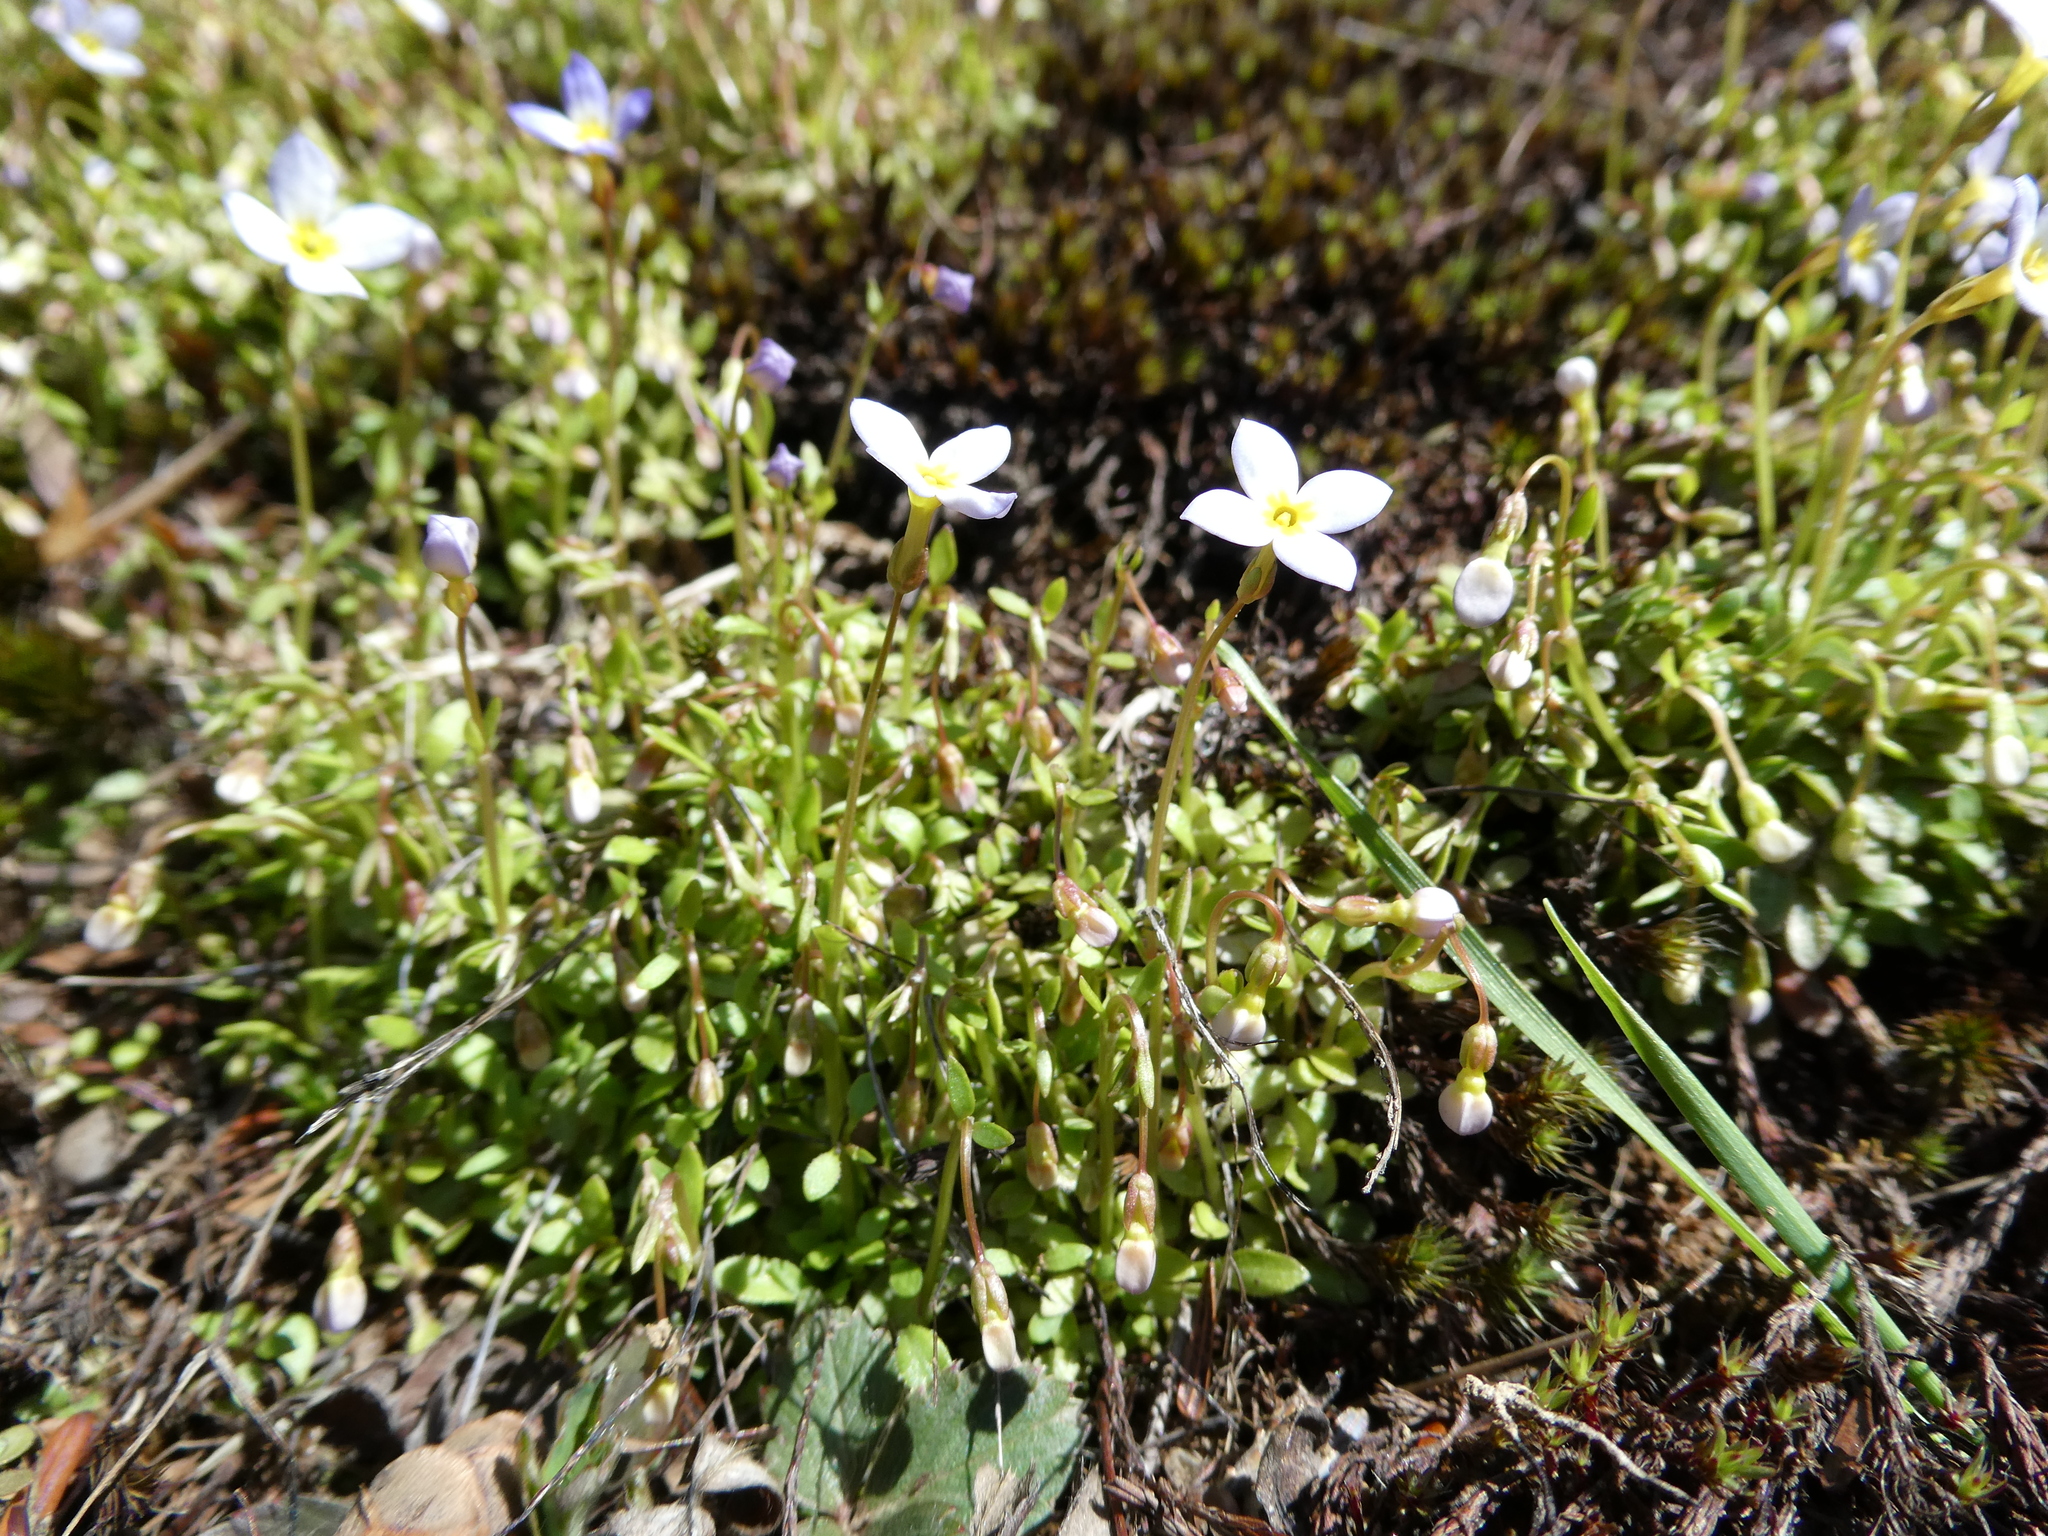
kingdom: Plantae
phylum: Tracheophyta
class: Magnoliopsida
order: Gentianales
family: Rubiaceae
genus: Houstonia
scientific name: Houstonia caerulea
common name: Bluets
